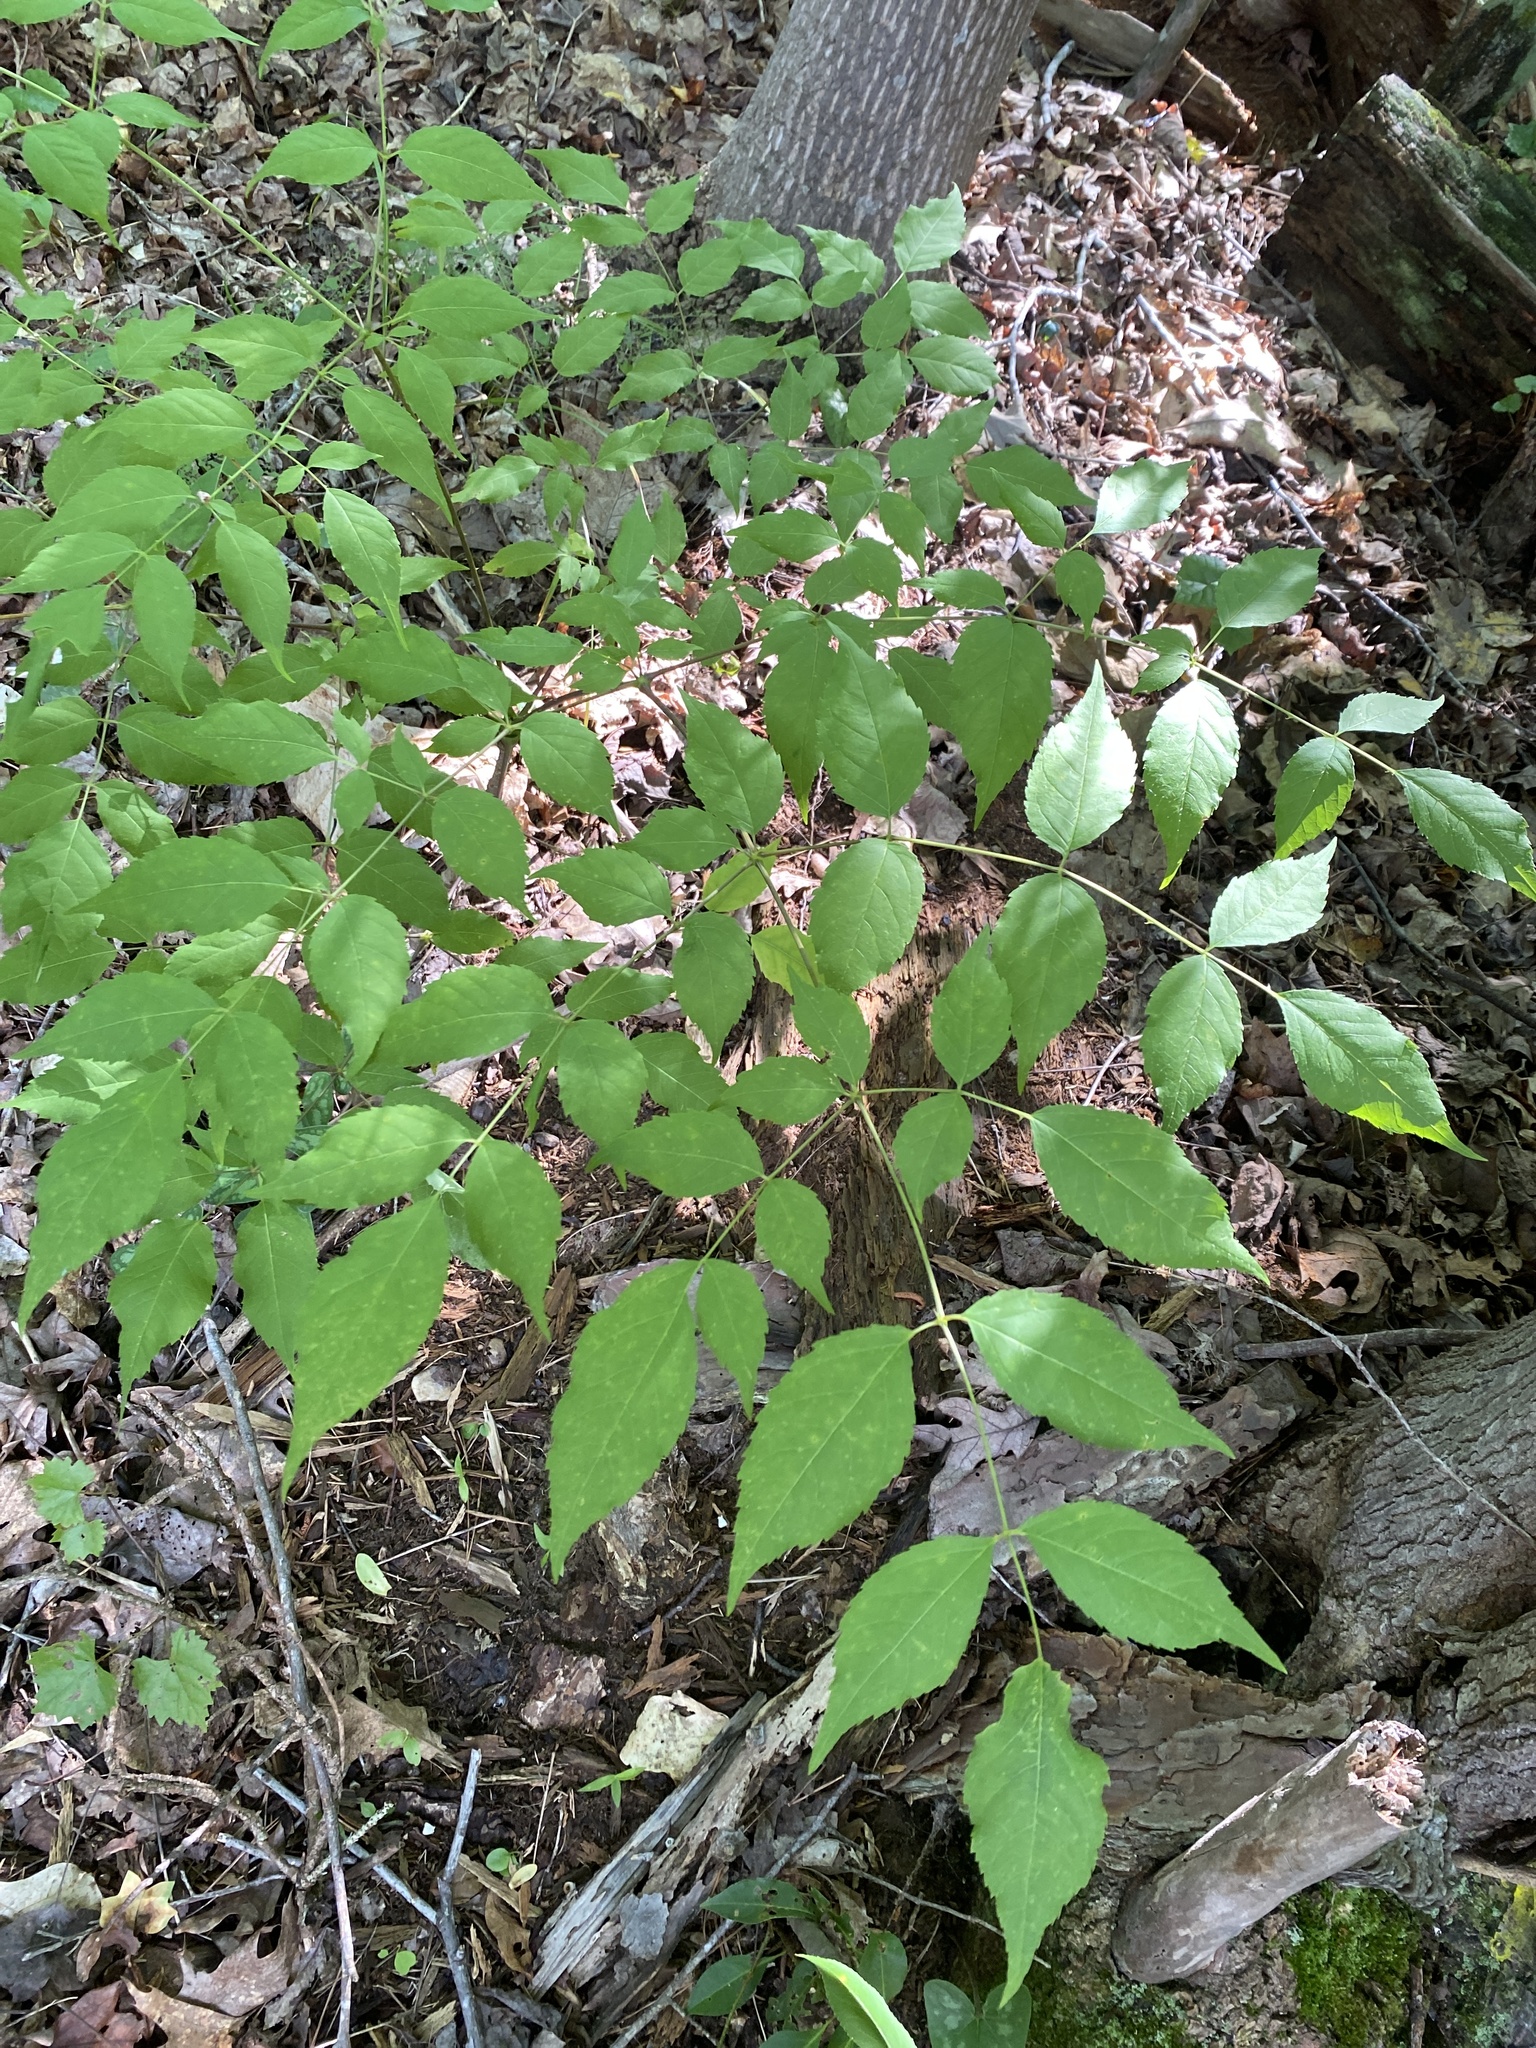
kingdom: Plantae
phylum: Tracheophyta
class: Magnoliopsida
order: Apiales
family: Araliaceae
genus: Aralia
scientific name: Aralia spinosa
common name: Hercules'-club
